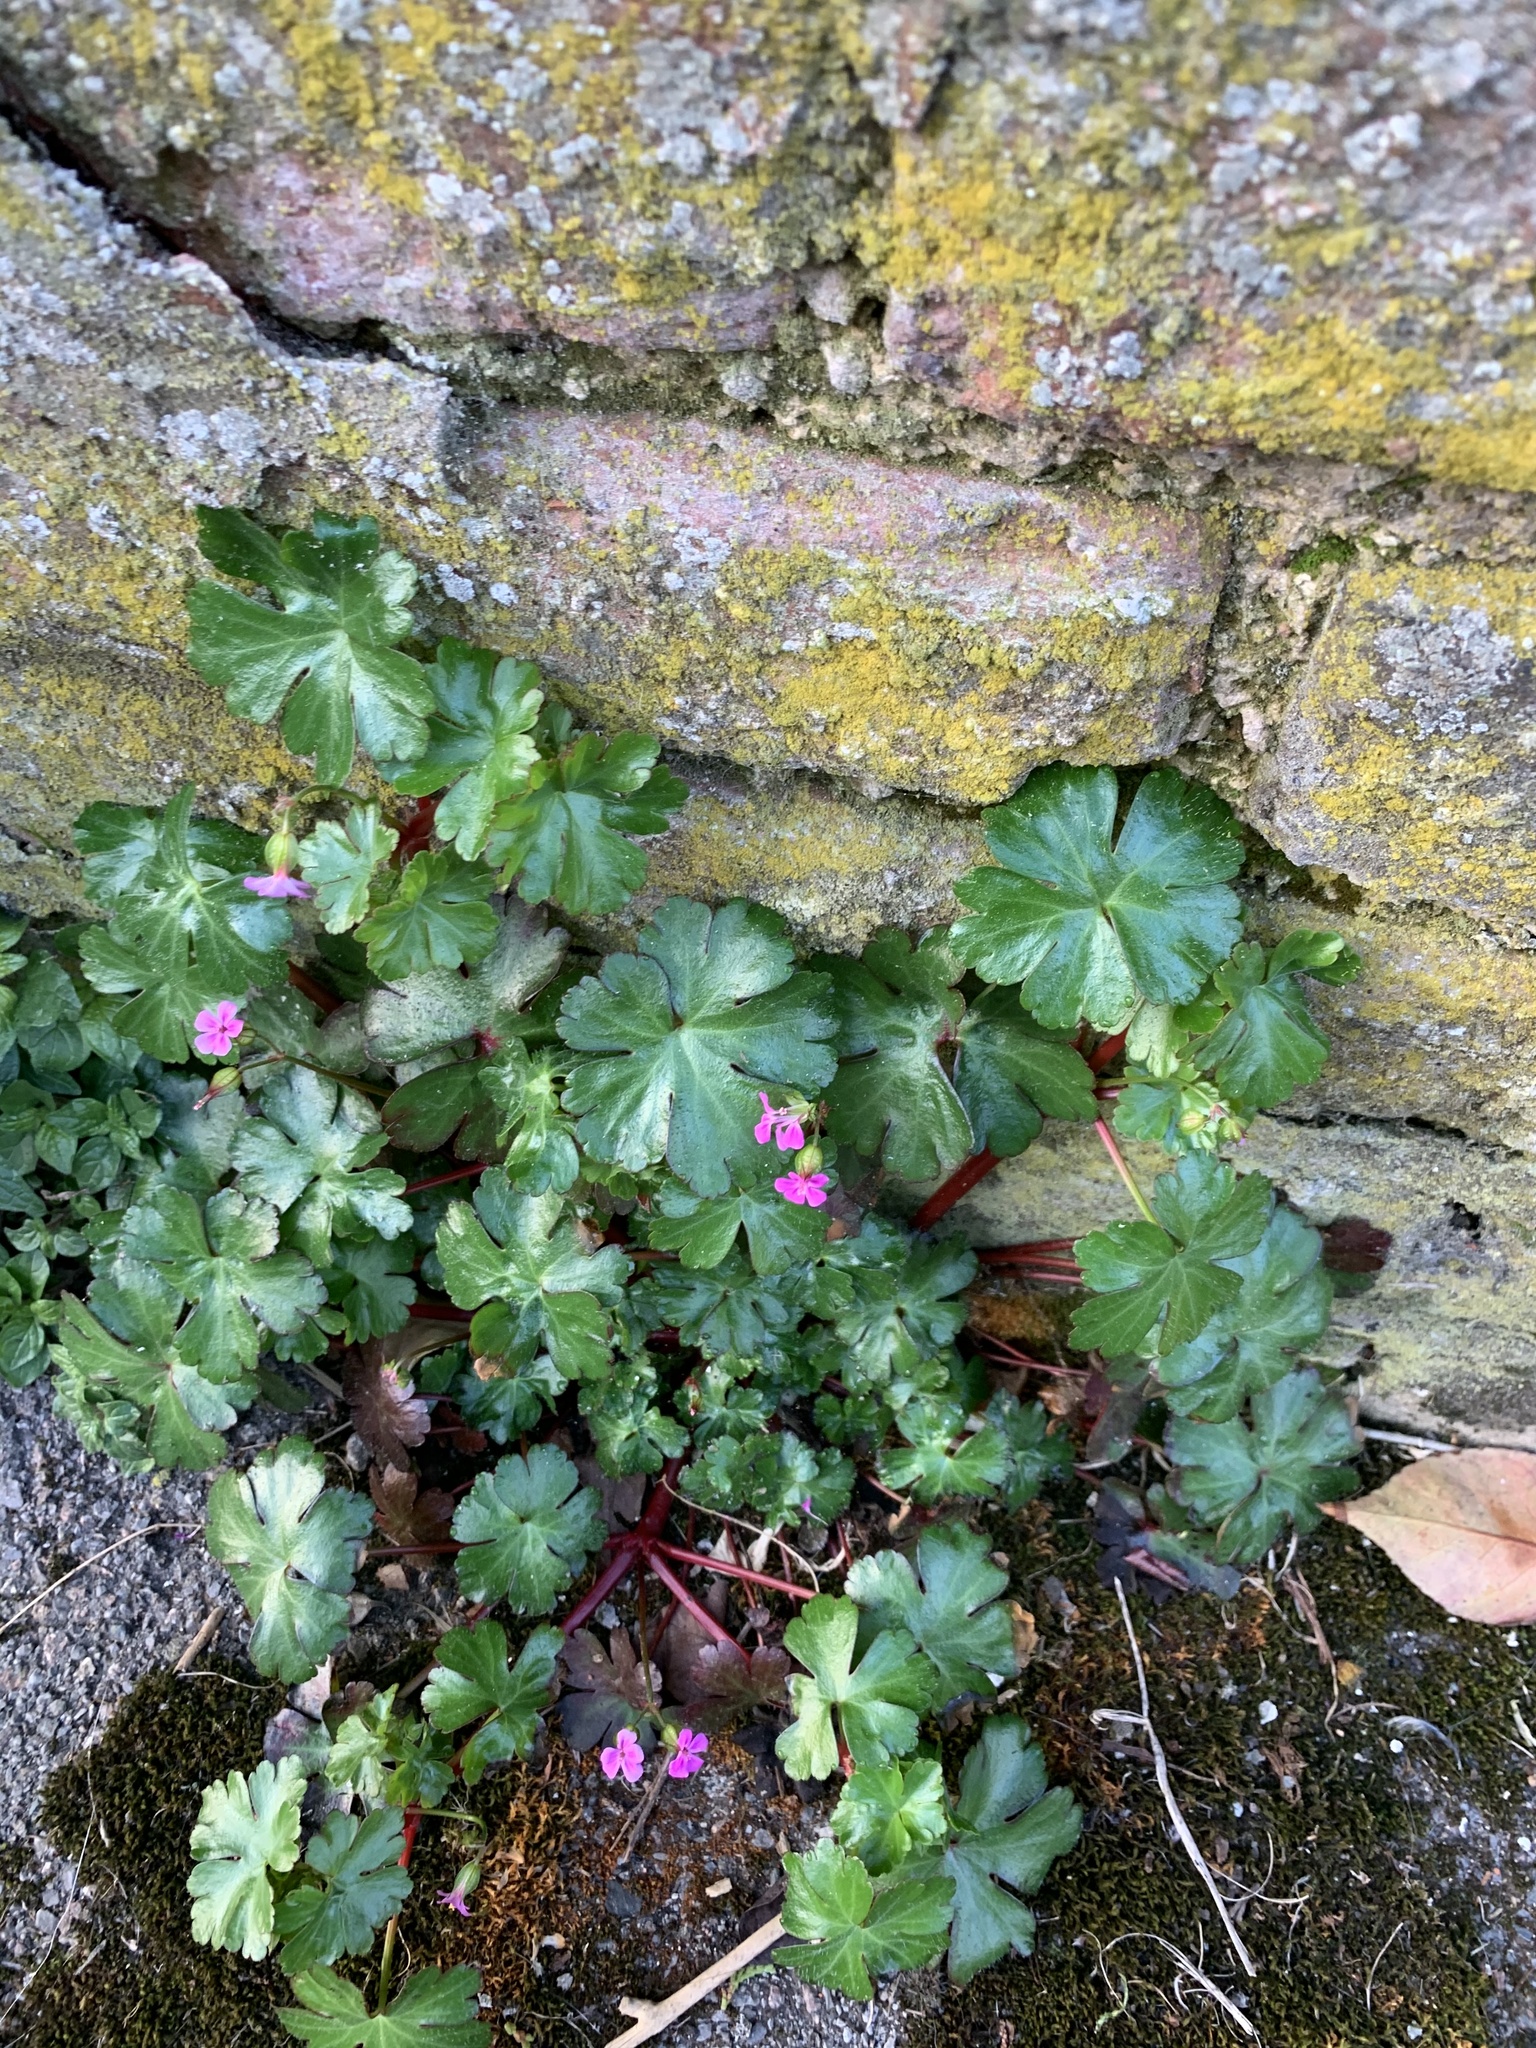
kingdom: Plantae
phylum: Tracheophyta
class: Magnoliopsida
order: Geraniales
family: Geraniaceae
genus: Geranium
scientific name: Geranium lucidum
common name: Shining crane's-bill
